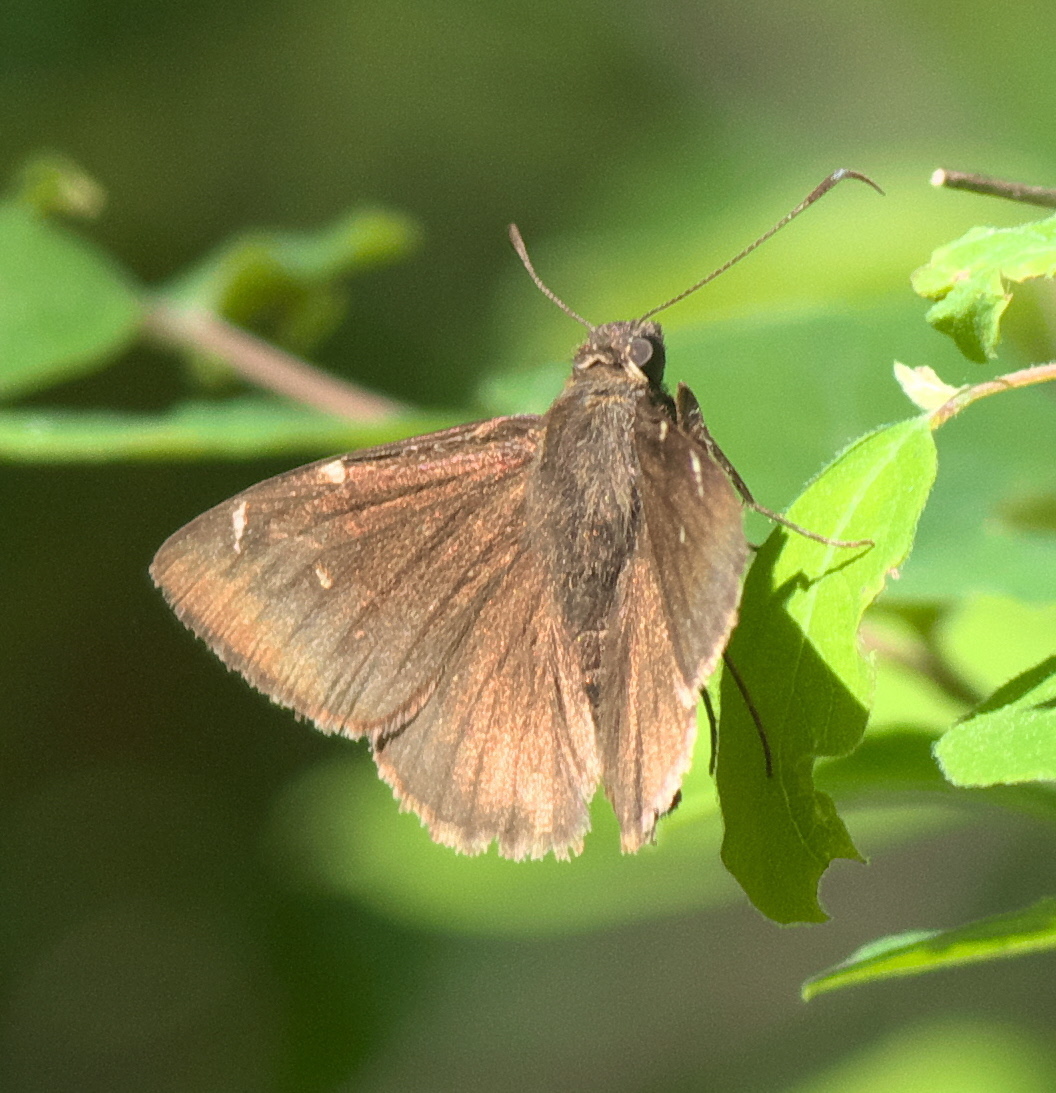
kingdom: Animalia
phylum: Arthropoda
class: Insecta
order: Lepidoptera
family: Hesperiidae
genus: Thorybes
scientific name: Thorybes pylades
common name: Northern cloudywing
